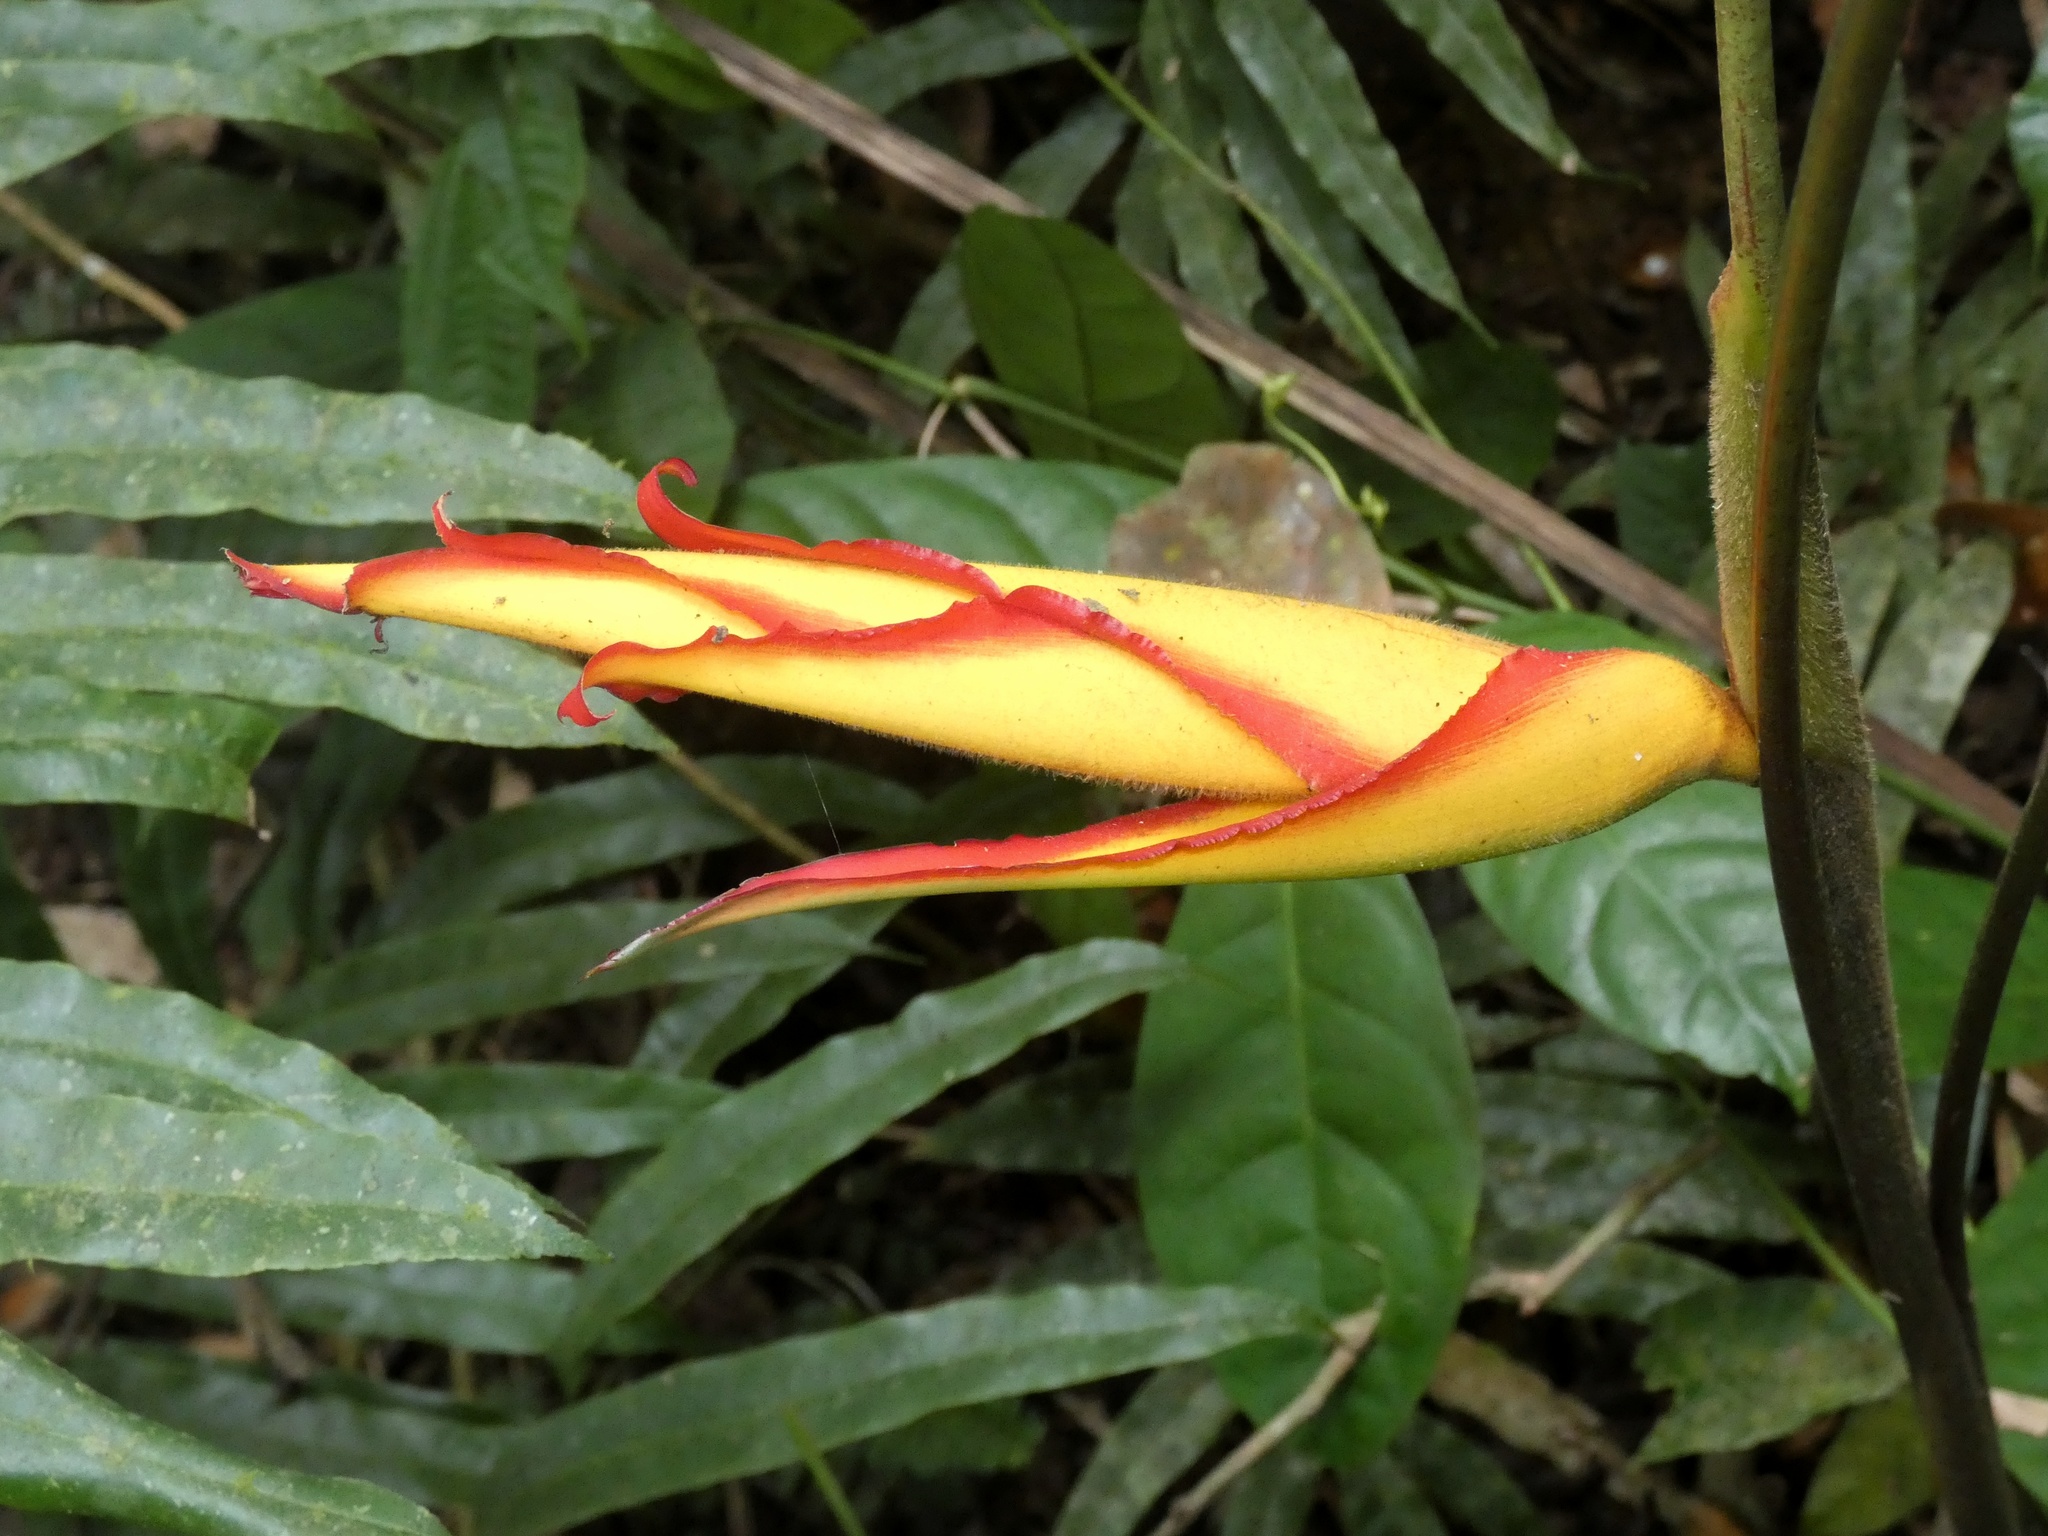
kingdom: Plantae
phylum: Tracheophyta
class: Liliopsida
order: Zingiberales
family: Heliconiaceae
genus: Heliconia
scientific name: Heliconia irrasa
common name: Wild plantain
